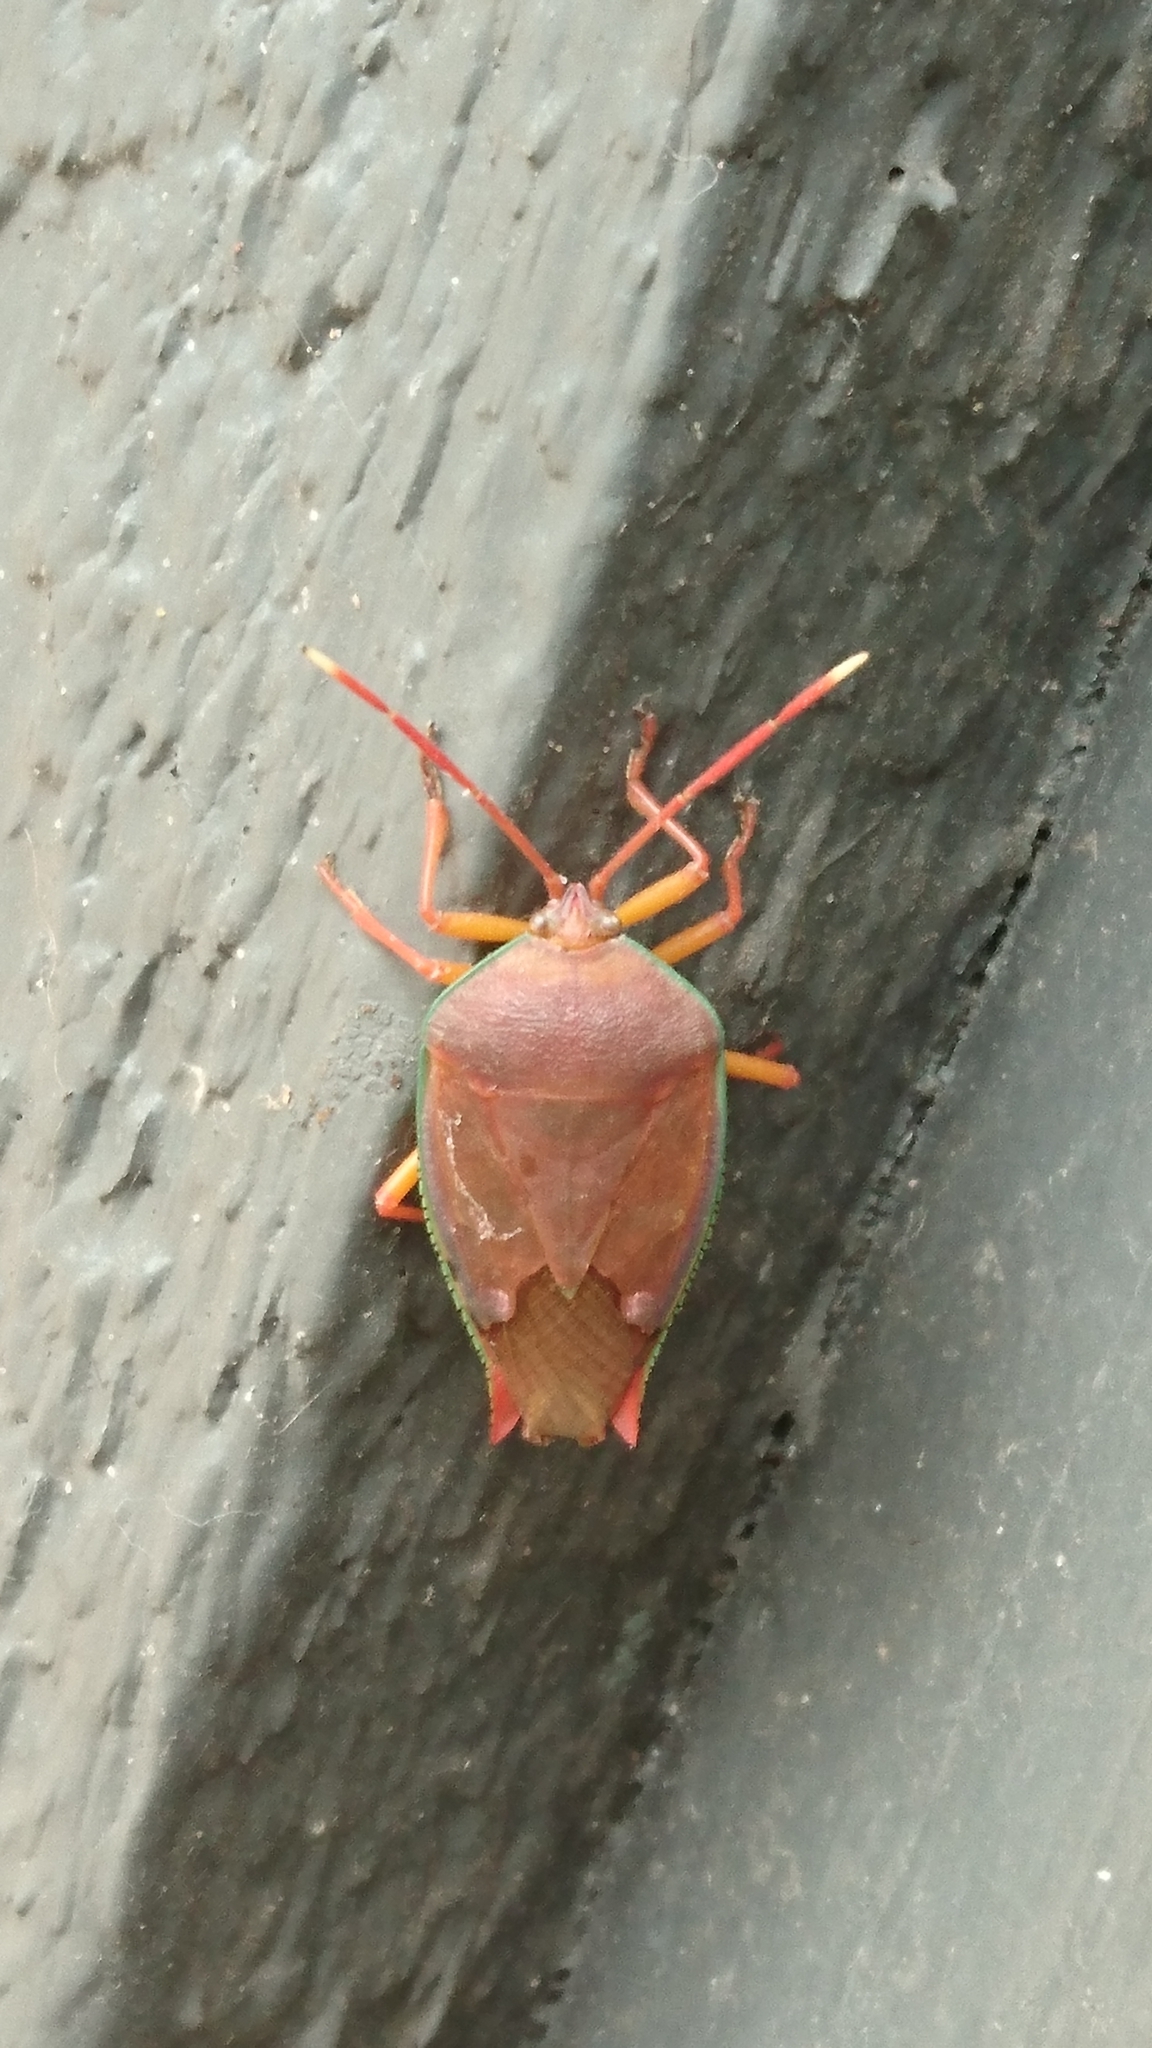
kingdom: Animalia
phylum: Arthropoda
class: Insecta
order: Hemiptera
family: Tessaratomidae
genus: Lyramorpha
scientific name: Lyramorpha rosea
